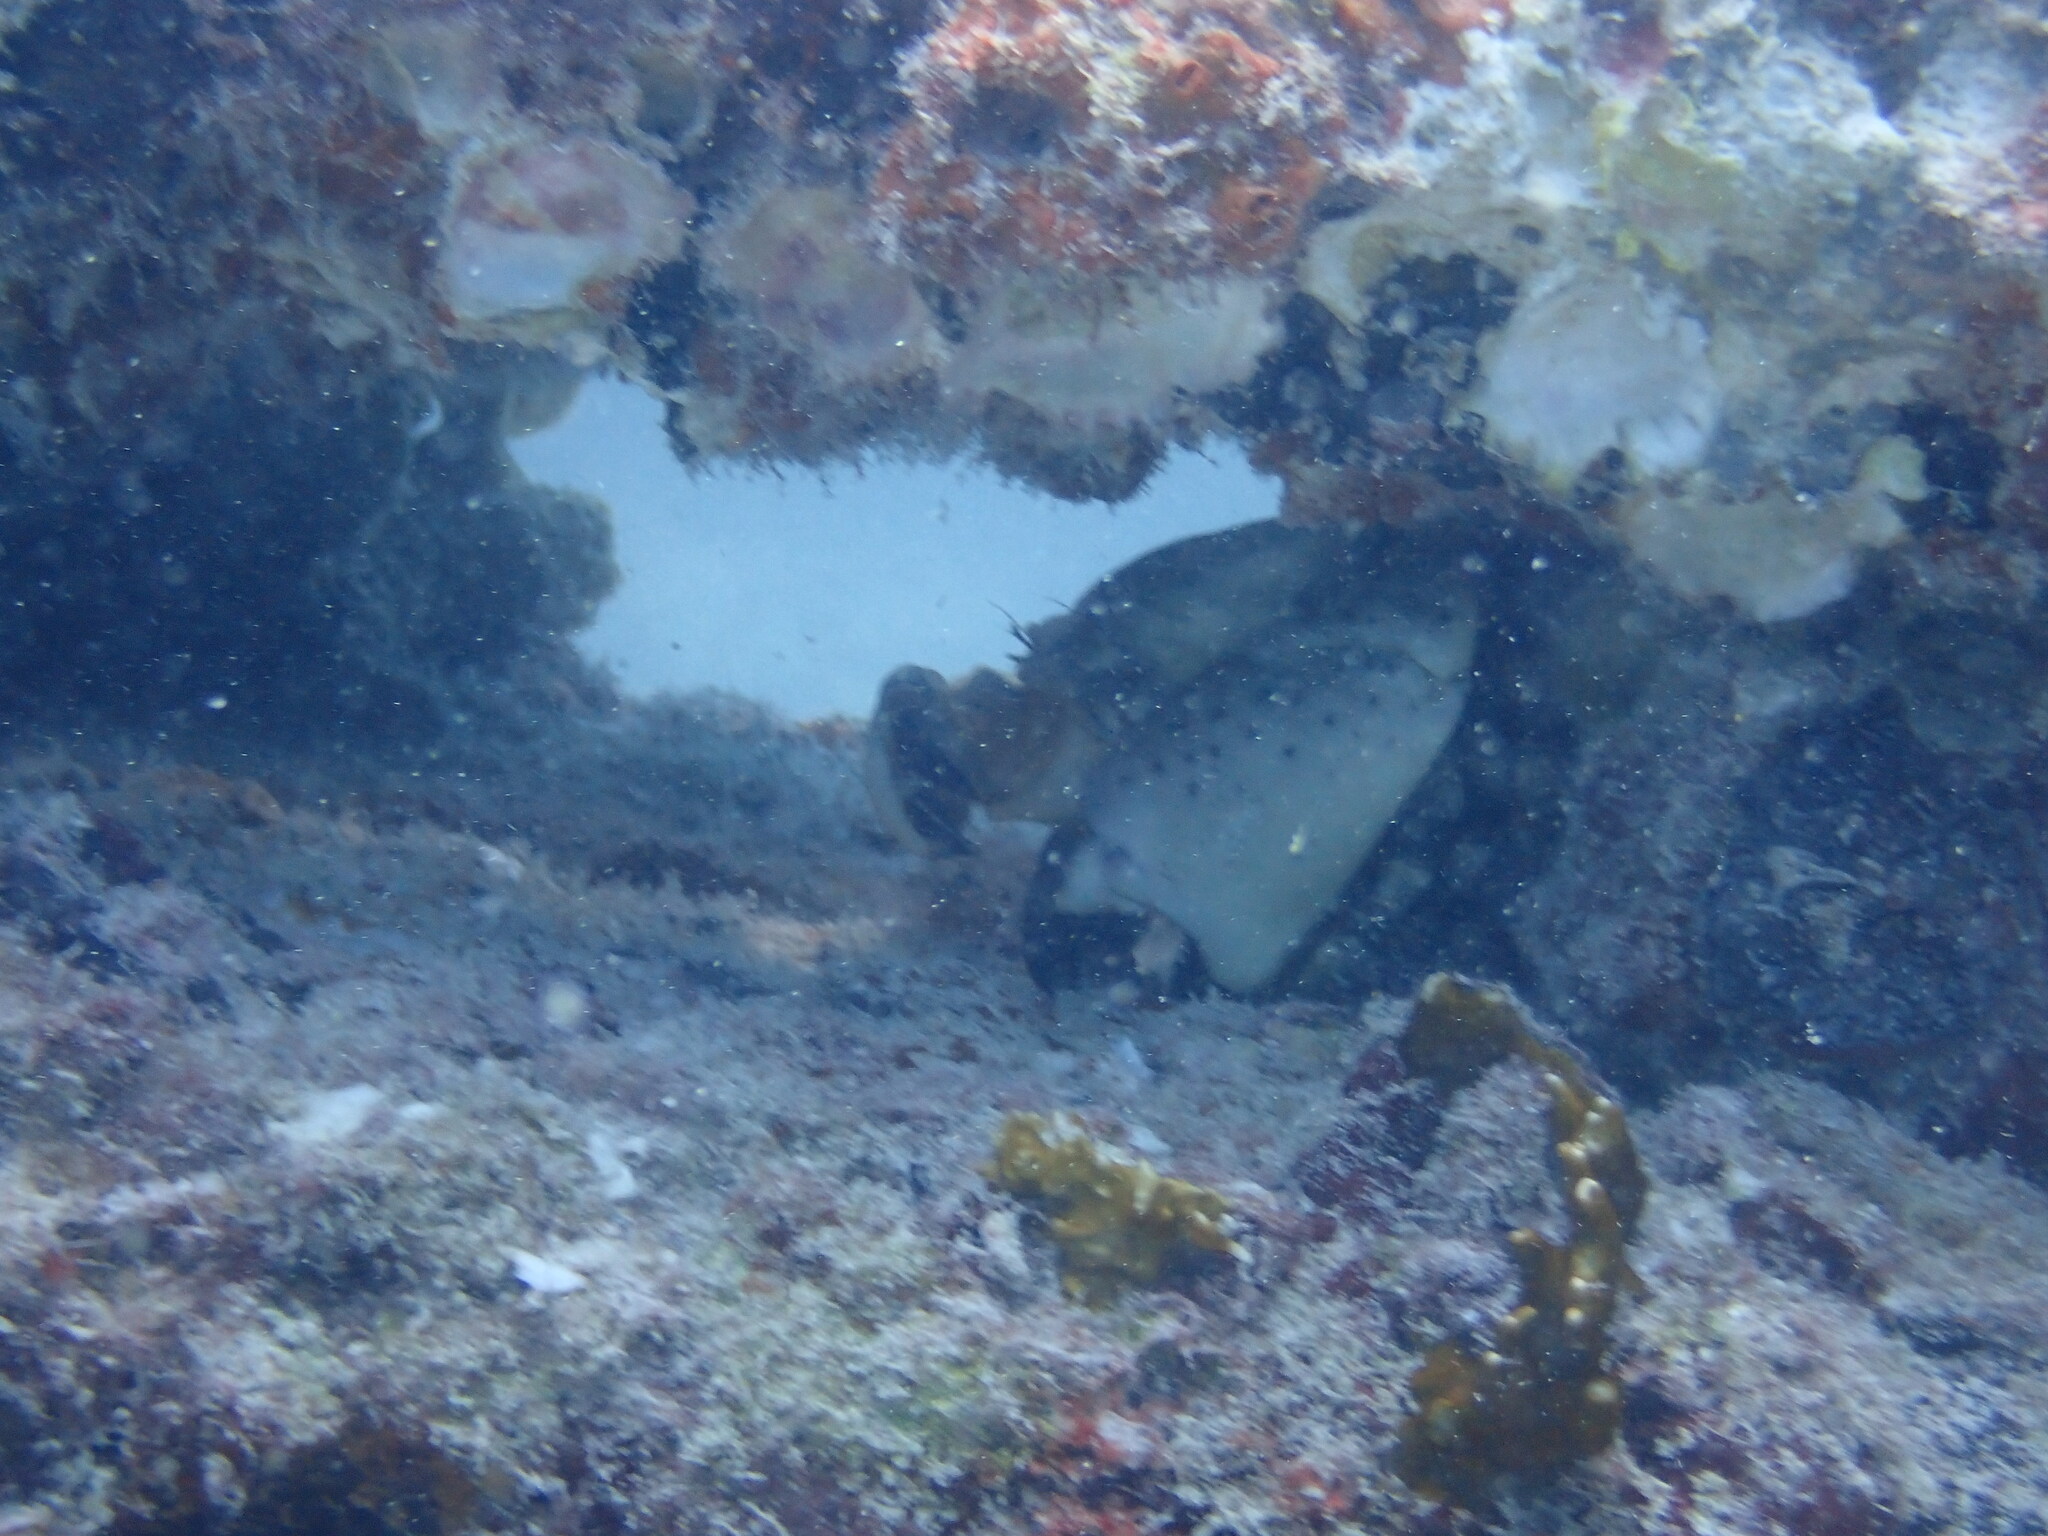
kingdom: Animalia
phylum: Arthropoda
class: Malacostraca
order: Decapoda
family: Menippidae
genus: Menippe
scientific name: Menippe mercenaria
